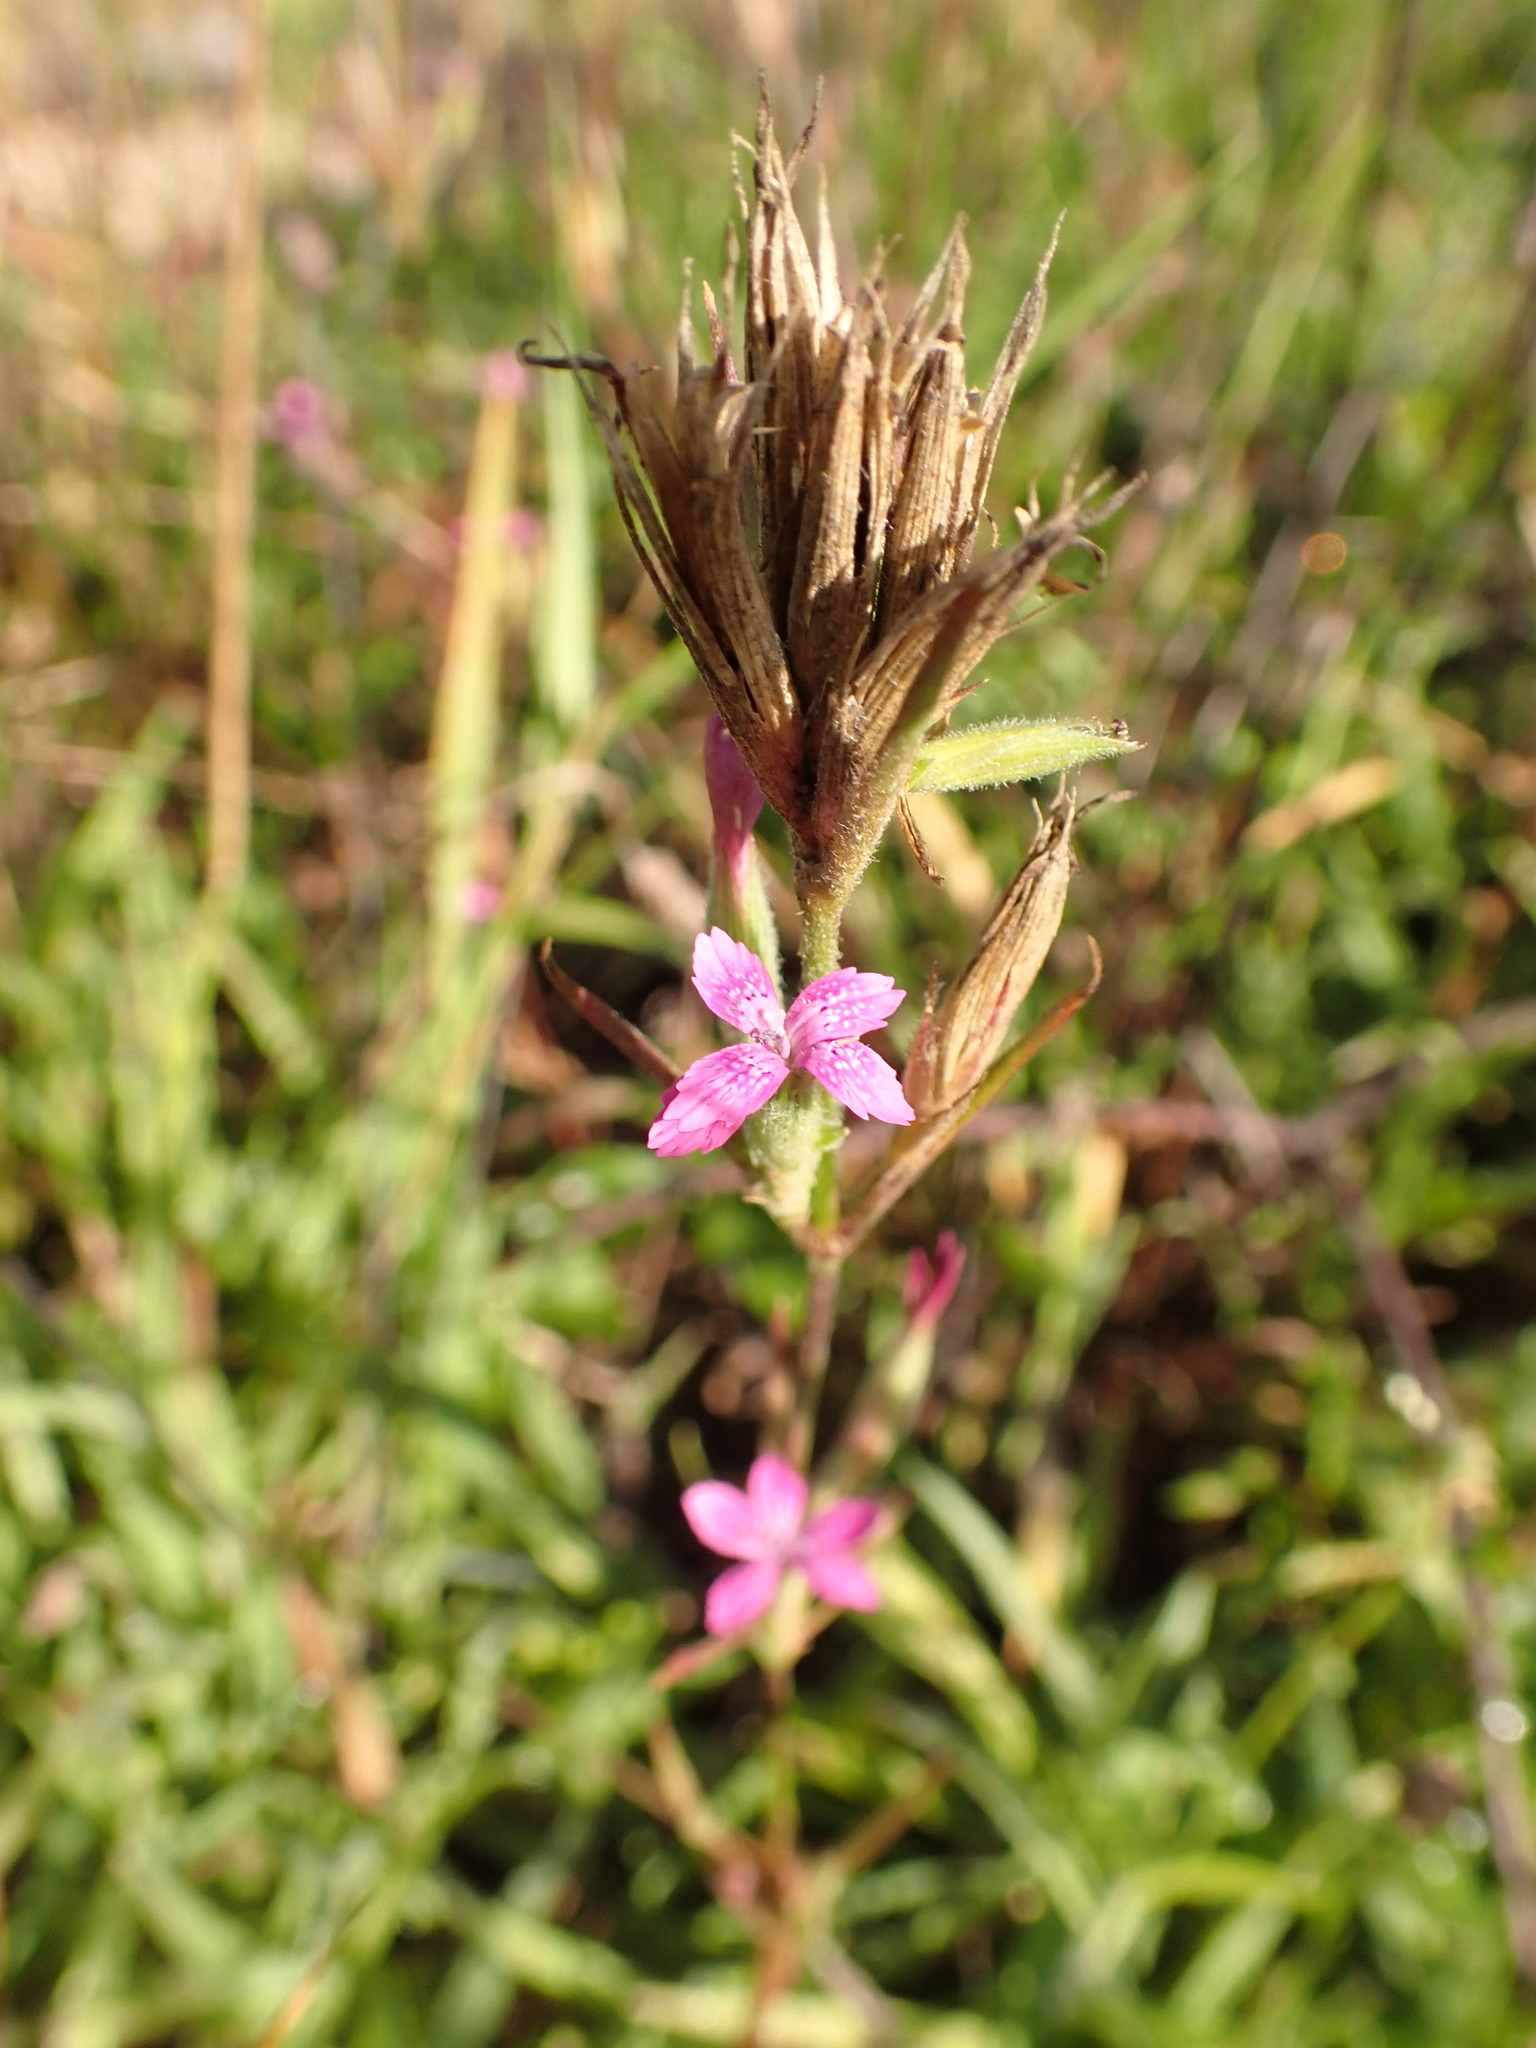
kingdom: Plantae
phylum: Tracheophyta
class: Magnoliopsida
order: Caryophyllales
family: Caryophyllaceae
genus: Dianthus
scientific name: Dianthus armeria
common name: Deptford pink
